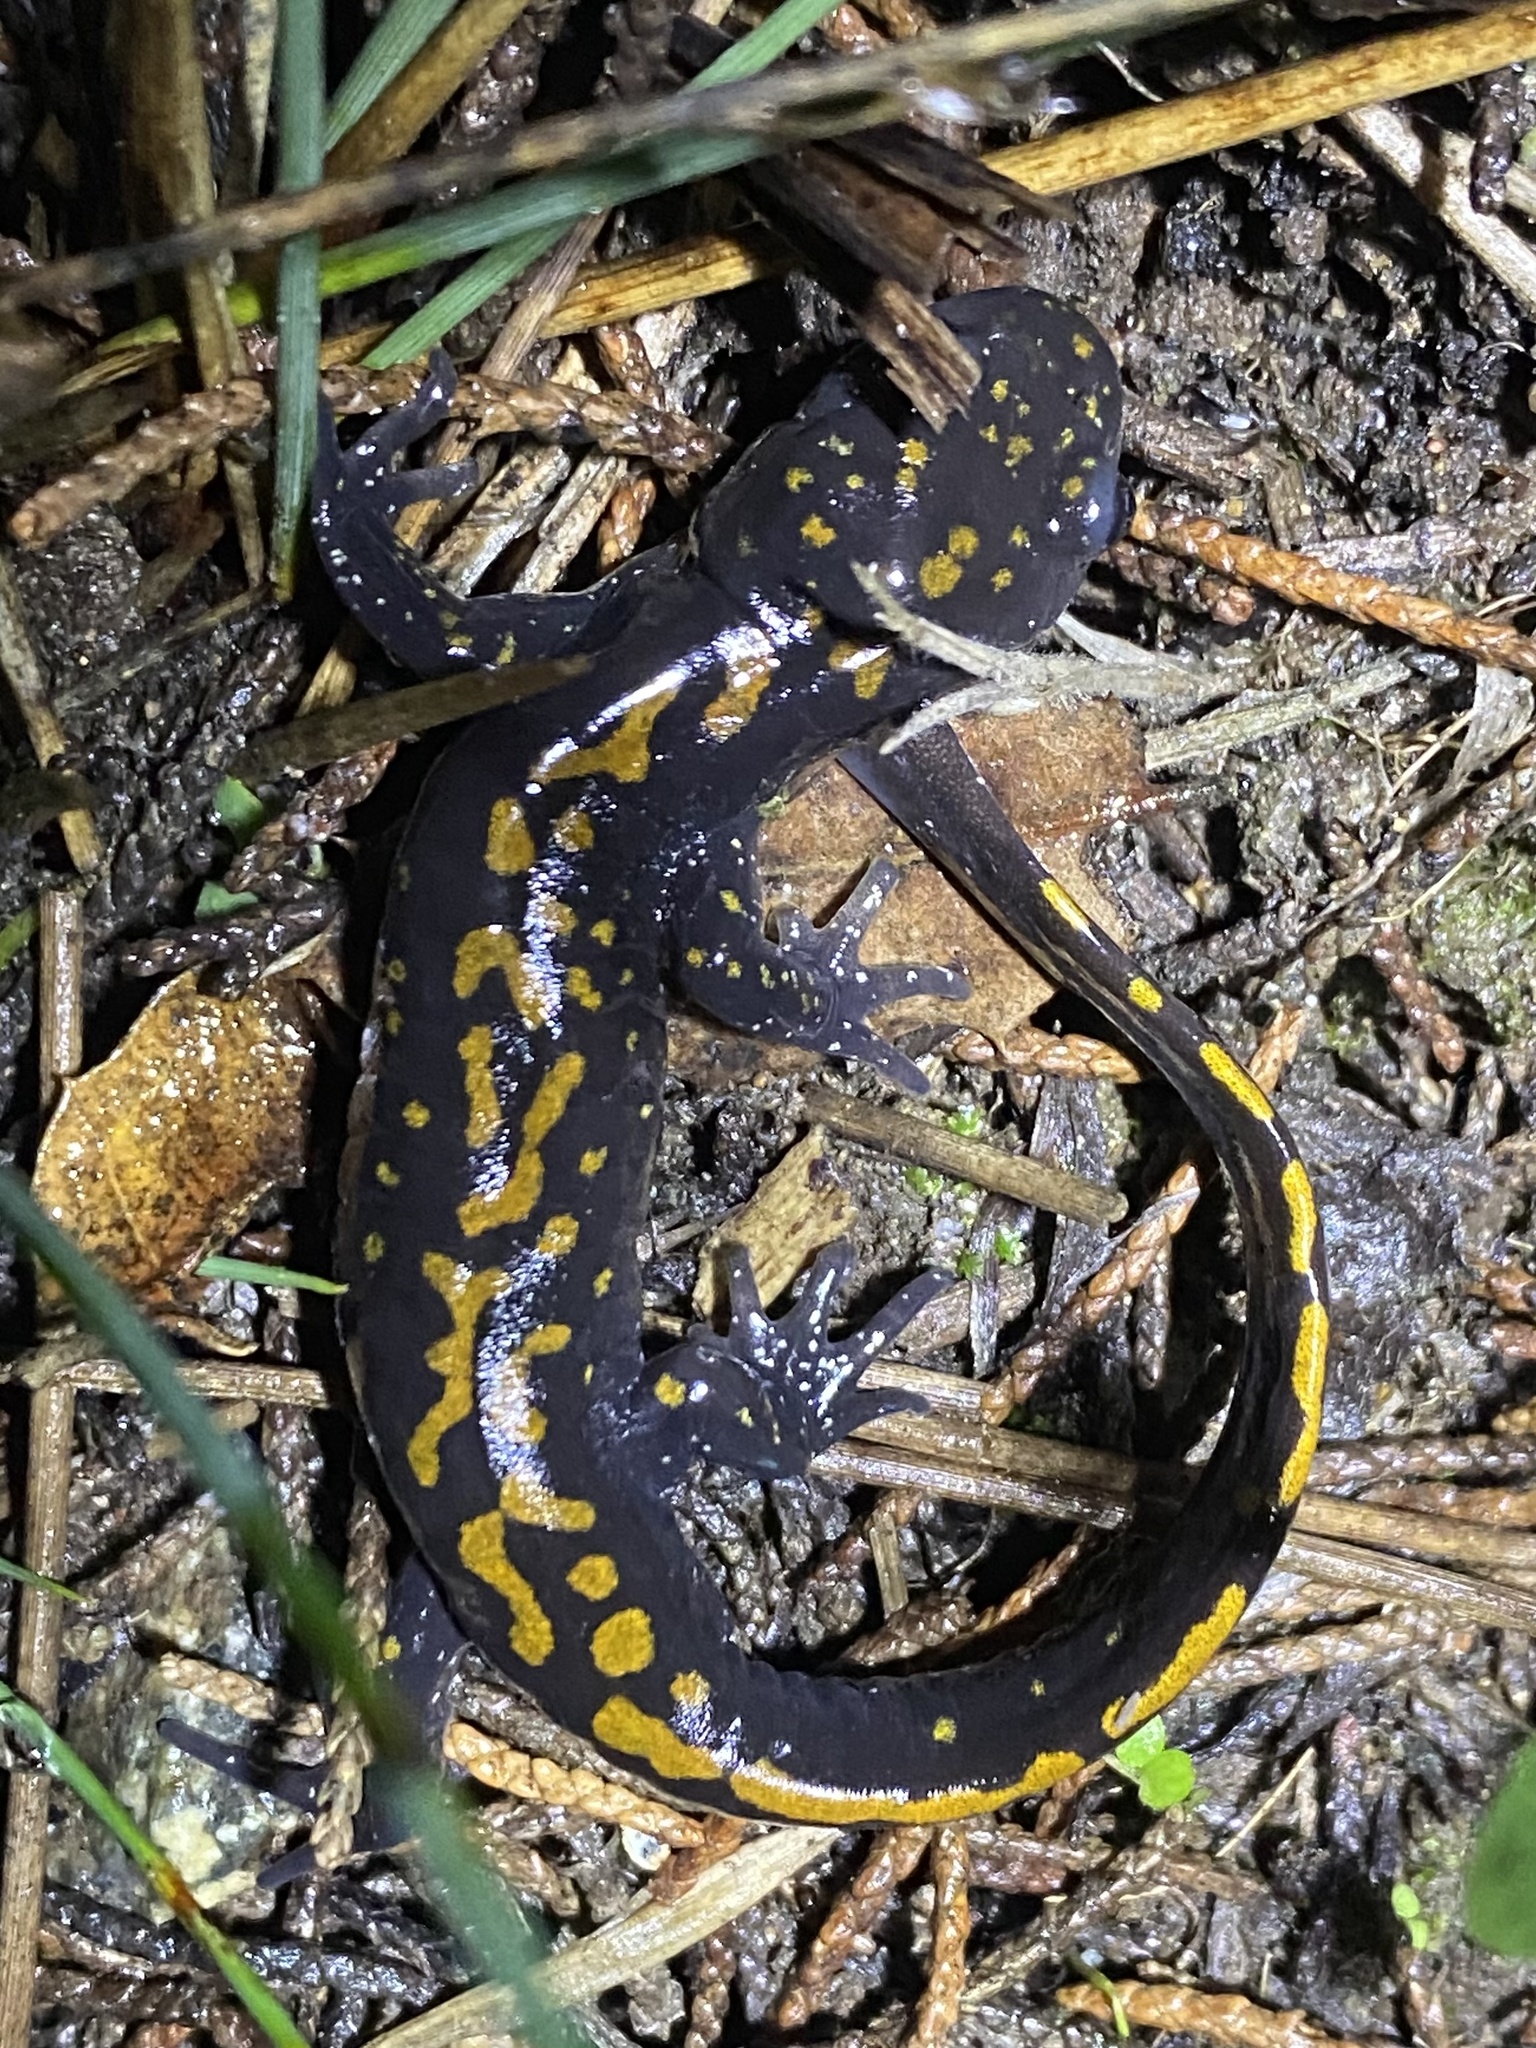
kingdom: Animalia
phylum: Chordata
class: Amphibia
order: Caudata
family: Ambystomatidae
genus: Ambystoma
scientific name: Ambystoma macrodactylum
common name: Long-toed salamander
